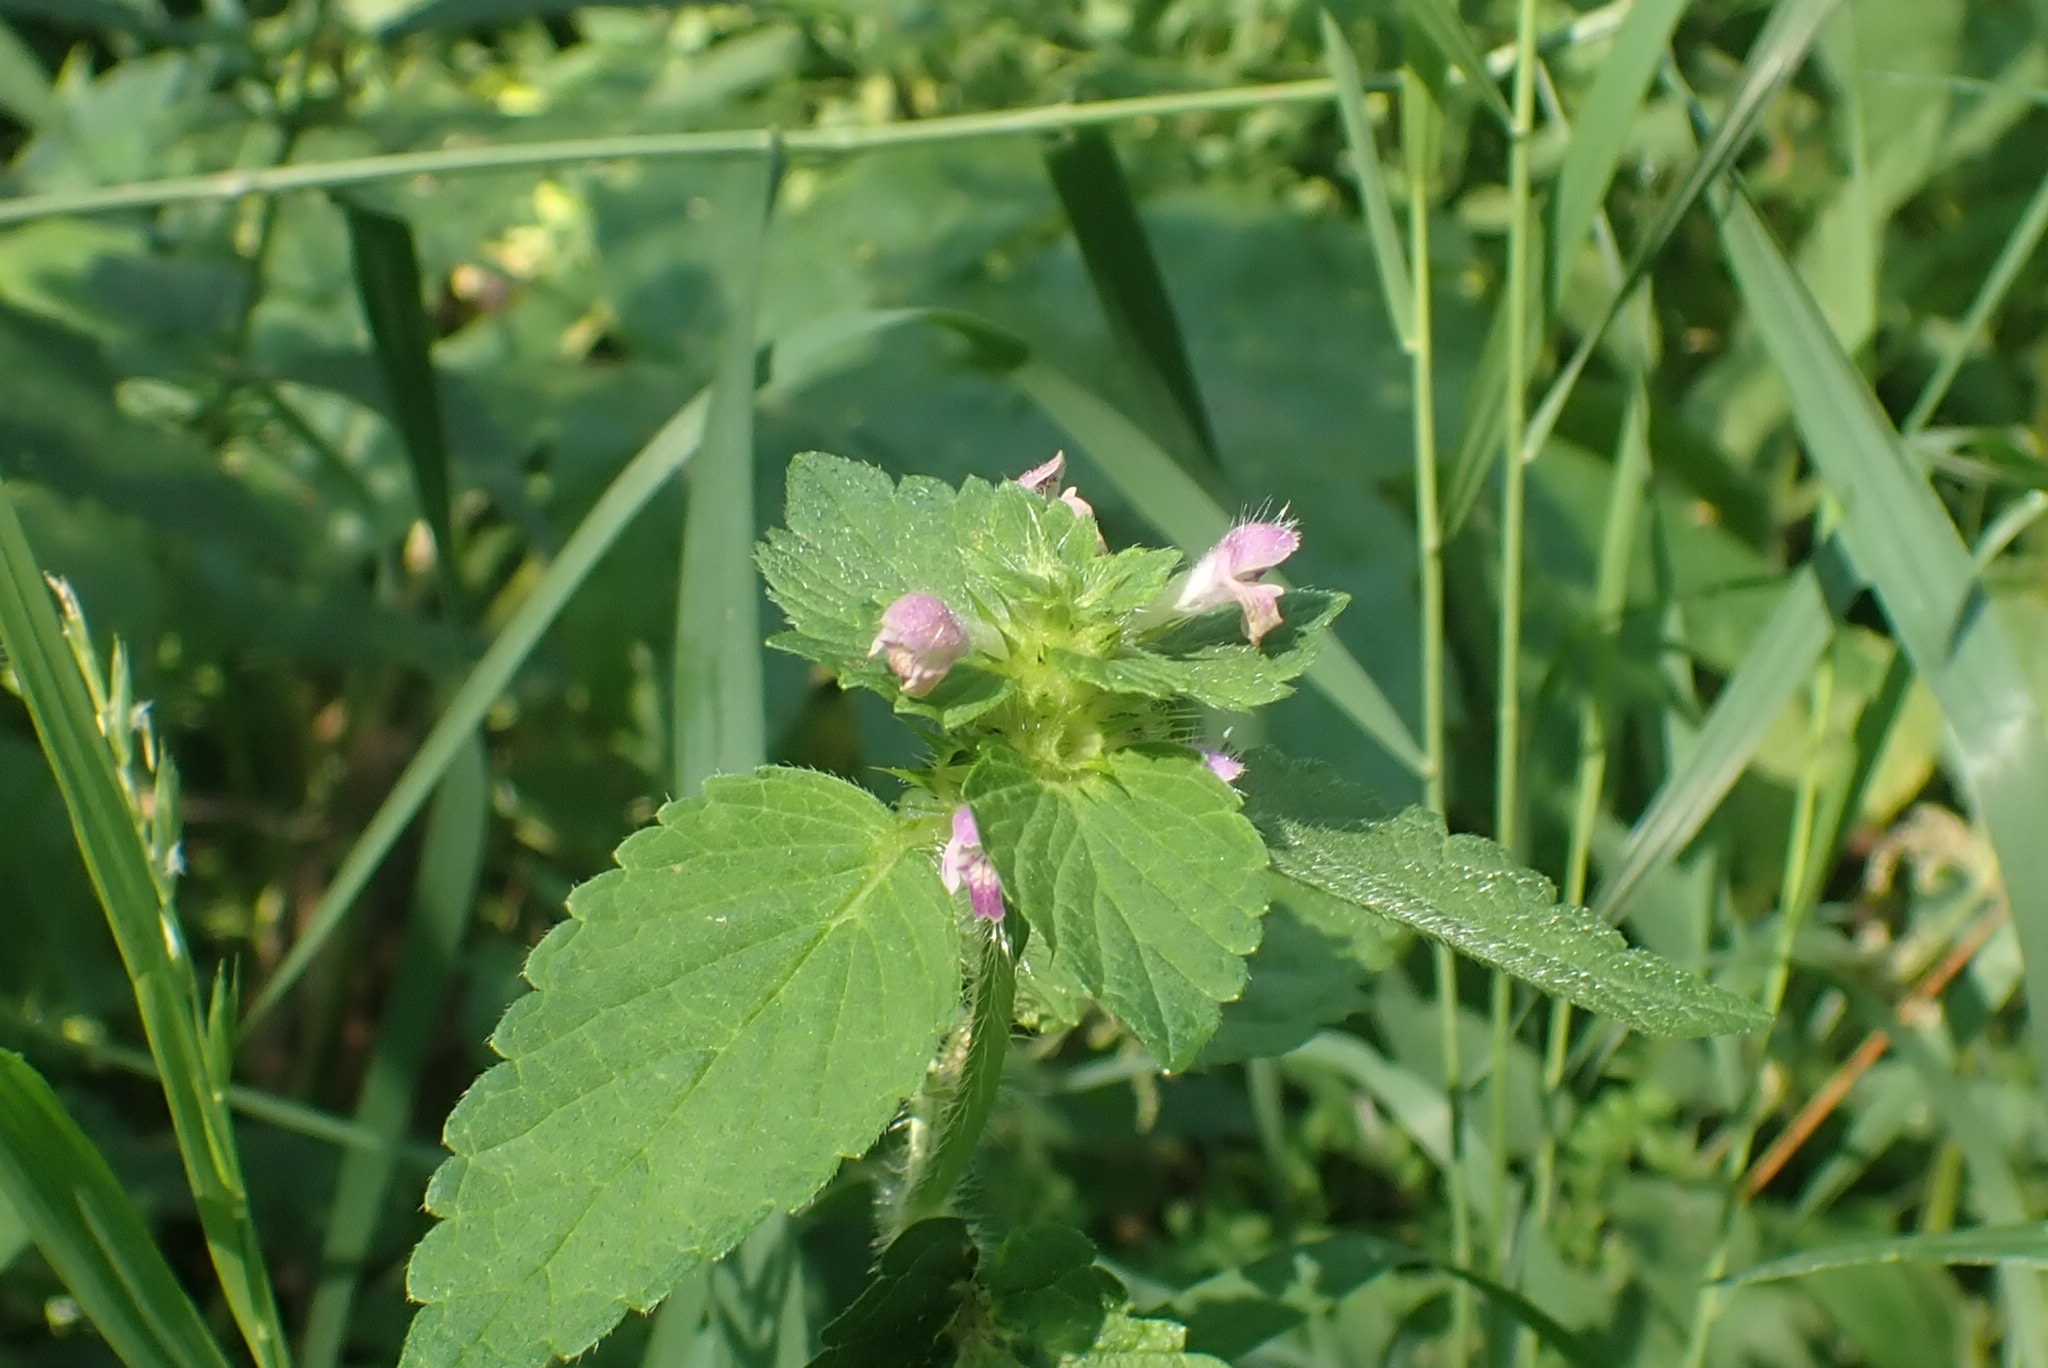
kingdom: Plantae
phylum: Tracheophyta
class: Magnoliopsida
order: Lamiales
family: Lamiaceae
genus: Galeopsis
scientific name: Galeopsis bifida
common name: Bifid hemp-nettle
